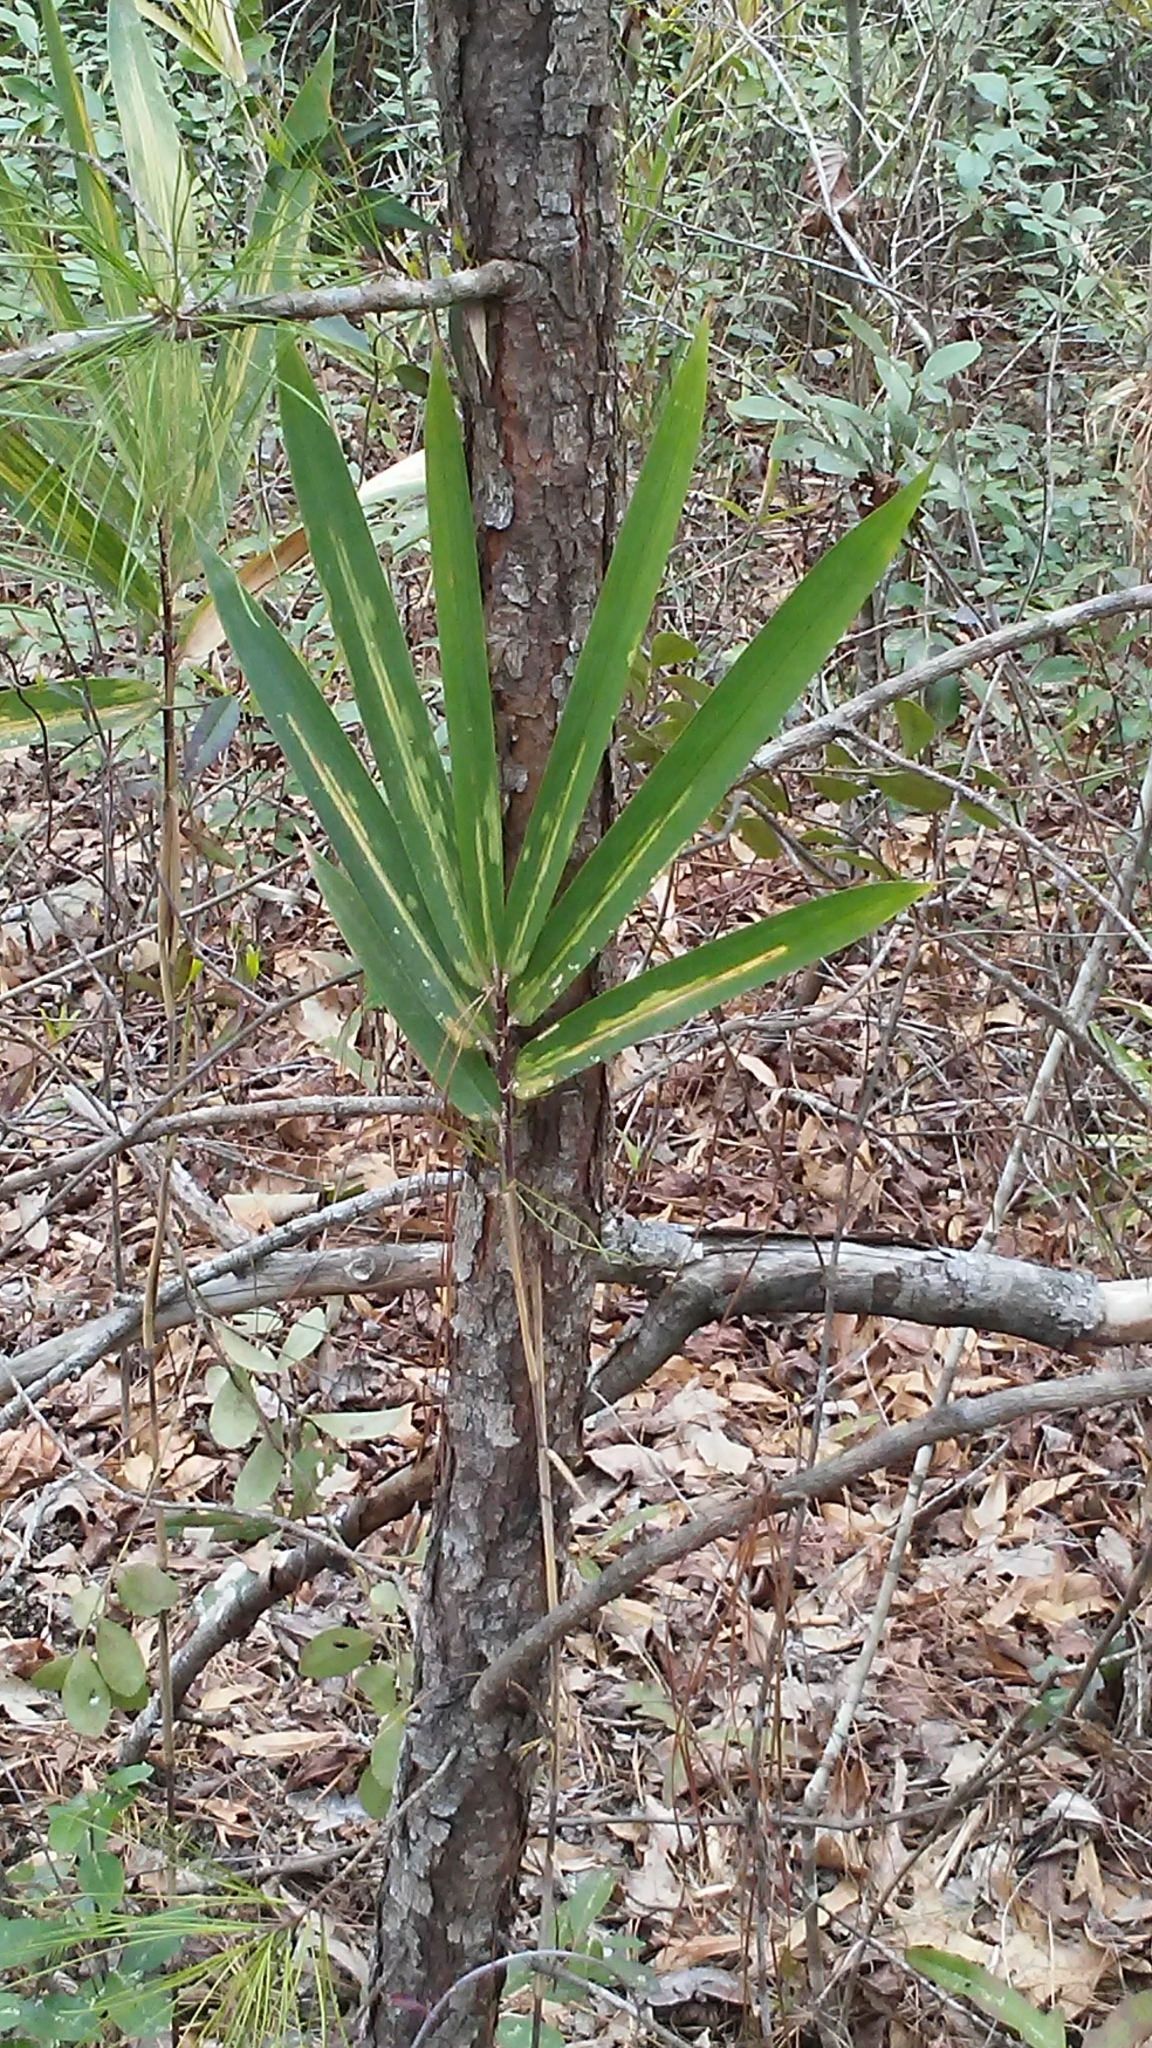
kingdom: Plantae
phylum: Tracheophyta
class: Liliopsida
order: Poales
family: Poaceae
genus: Arundinaria
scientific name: Arundinaria gigantea
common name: Giant cane
